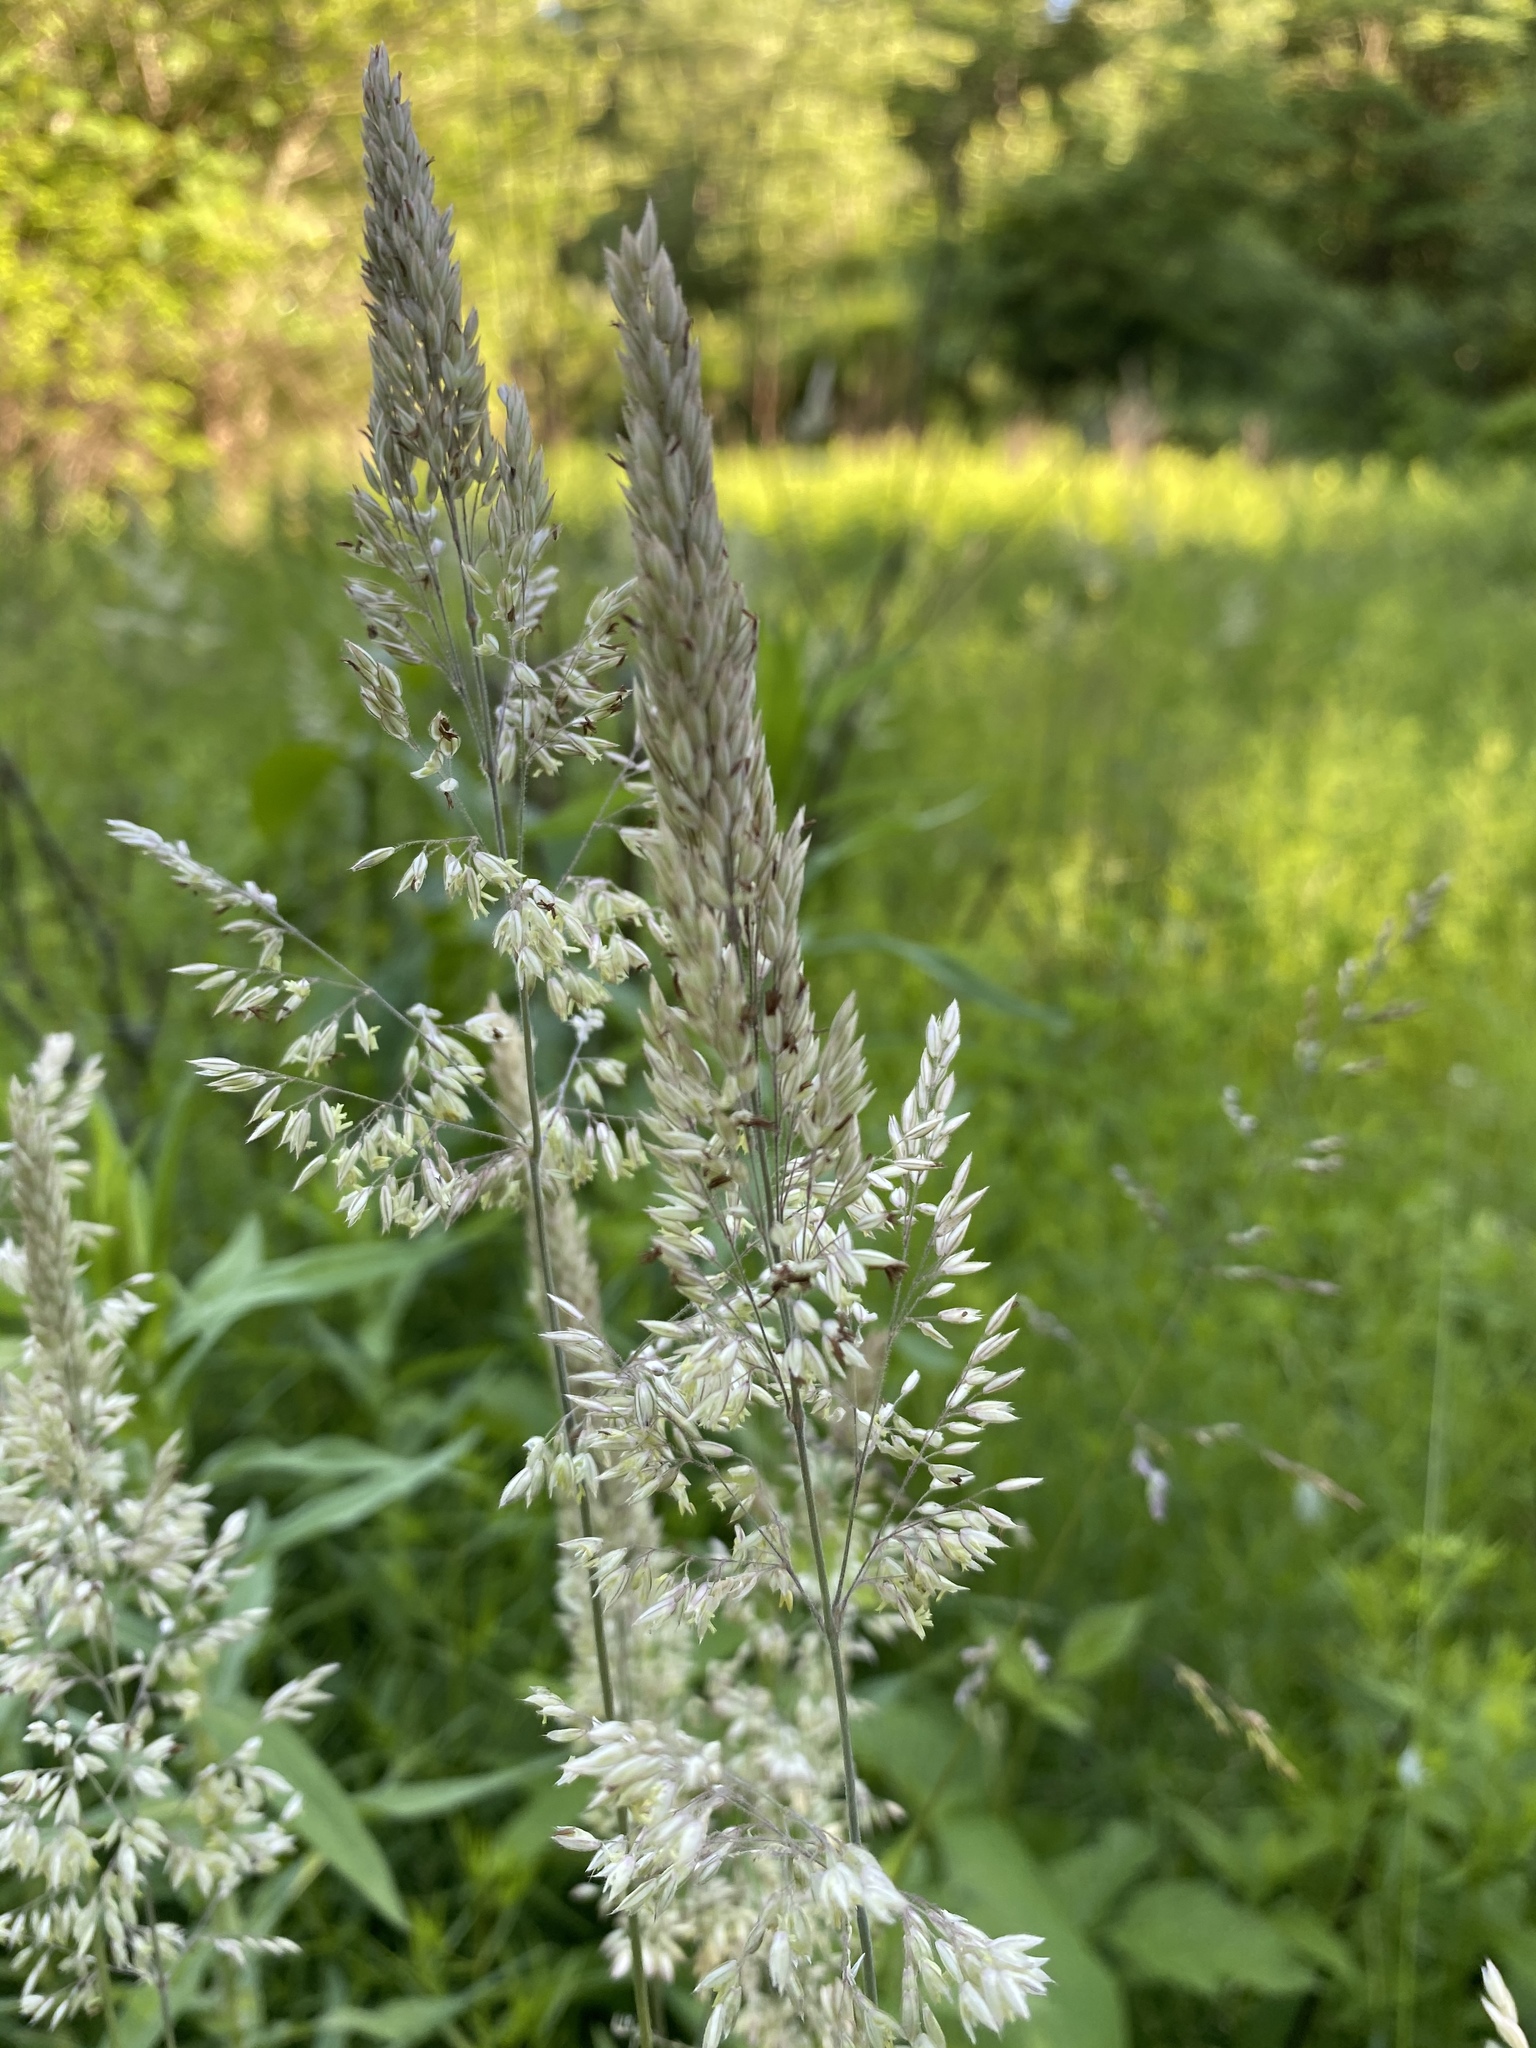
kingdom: Plantae
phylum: Tracheophyta
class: Liliopsida
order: Poales
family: Poaceae
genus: Holcus
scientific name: Holcus lanatus
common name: Yorkshire-fog
